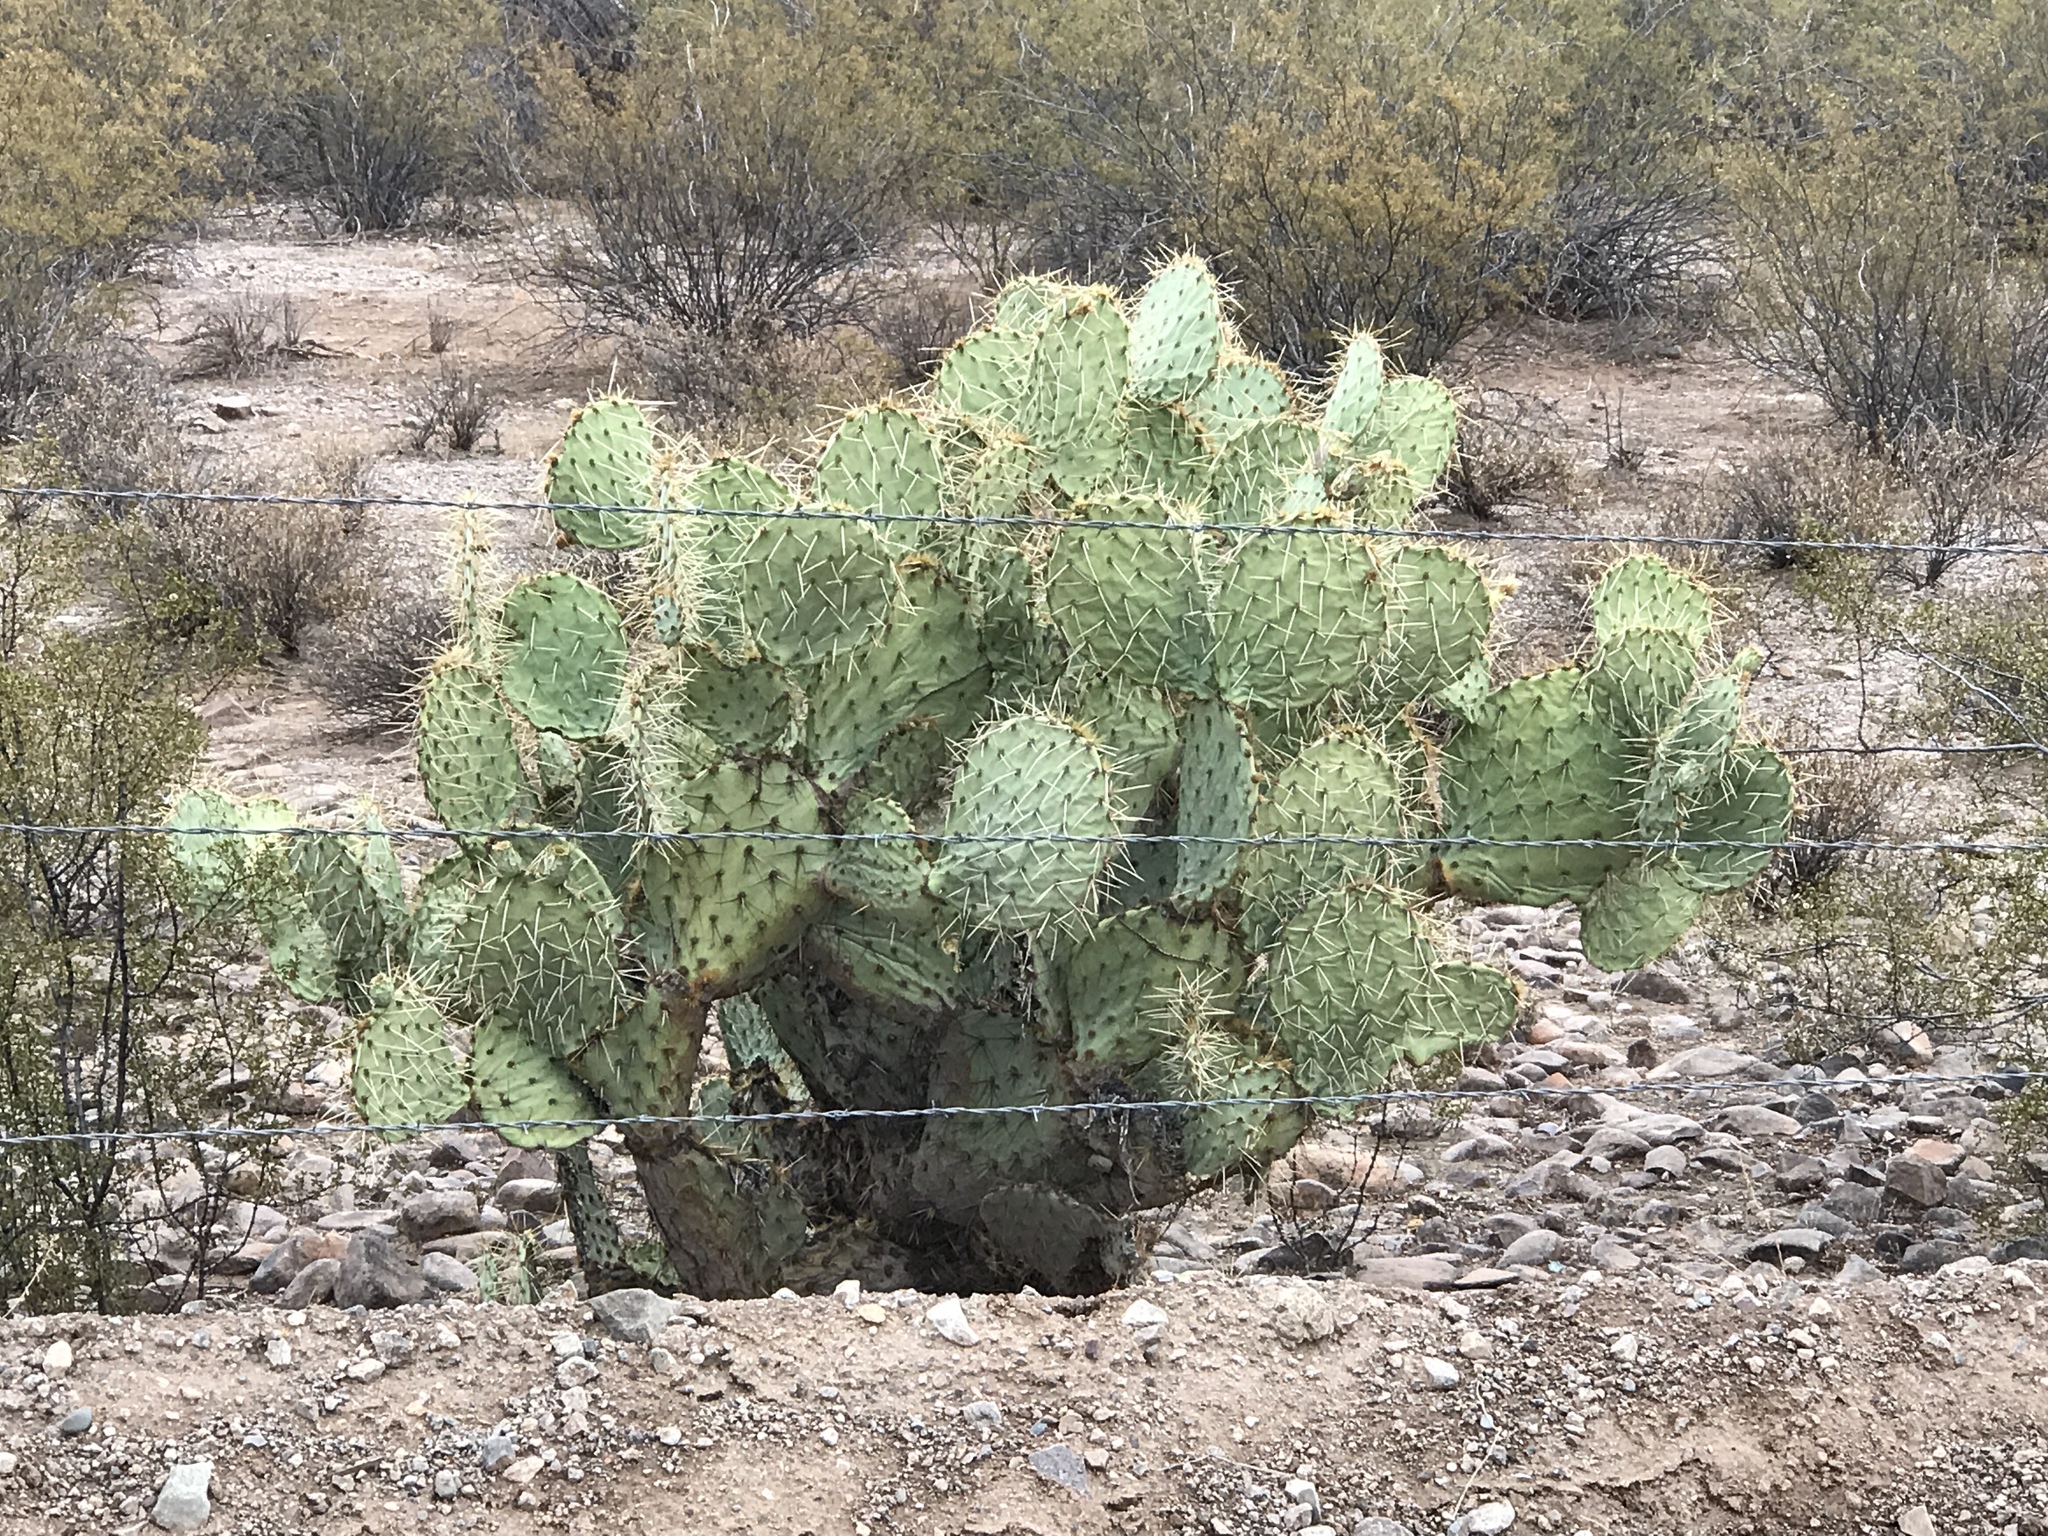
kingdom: Plantae
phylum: Tracheophyta
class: Magnoliopsida
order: Caryophyllales
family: Cactaceae
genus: Opuntia
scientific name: Opuntia engelmannii
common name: Cactus-apple
